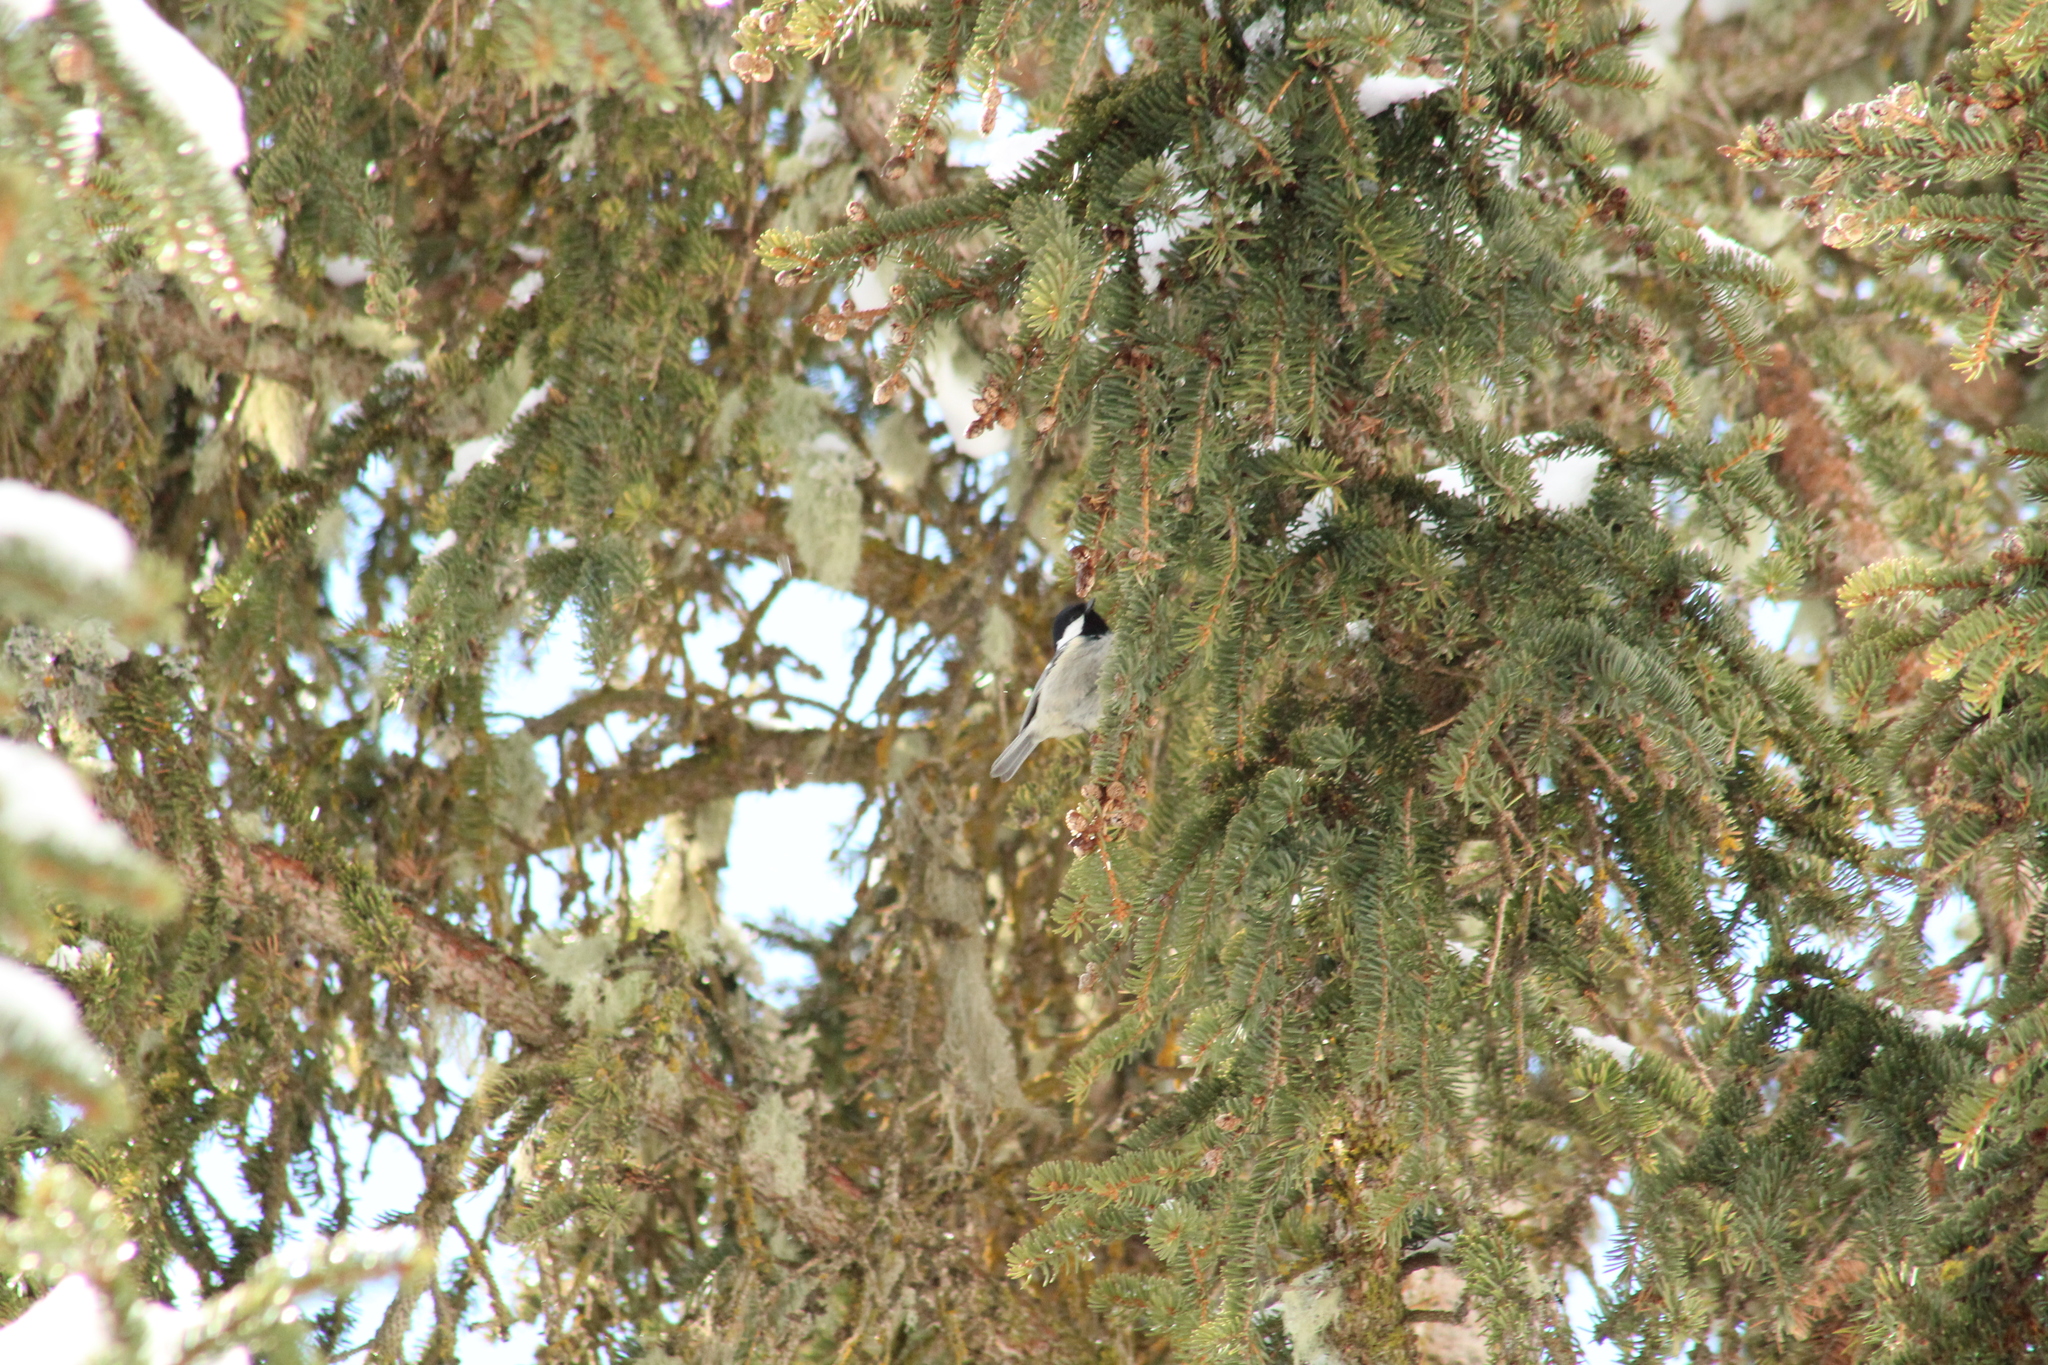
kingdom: Animalia
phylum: Chordata
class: Aves
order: Passeriformes
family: Paridae
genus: Periparus
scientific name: Periparus ater
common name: Coal tit
